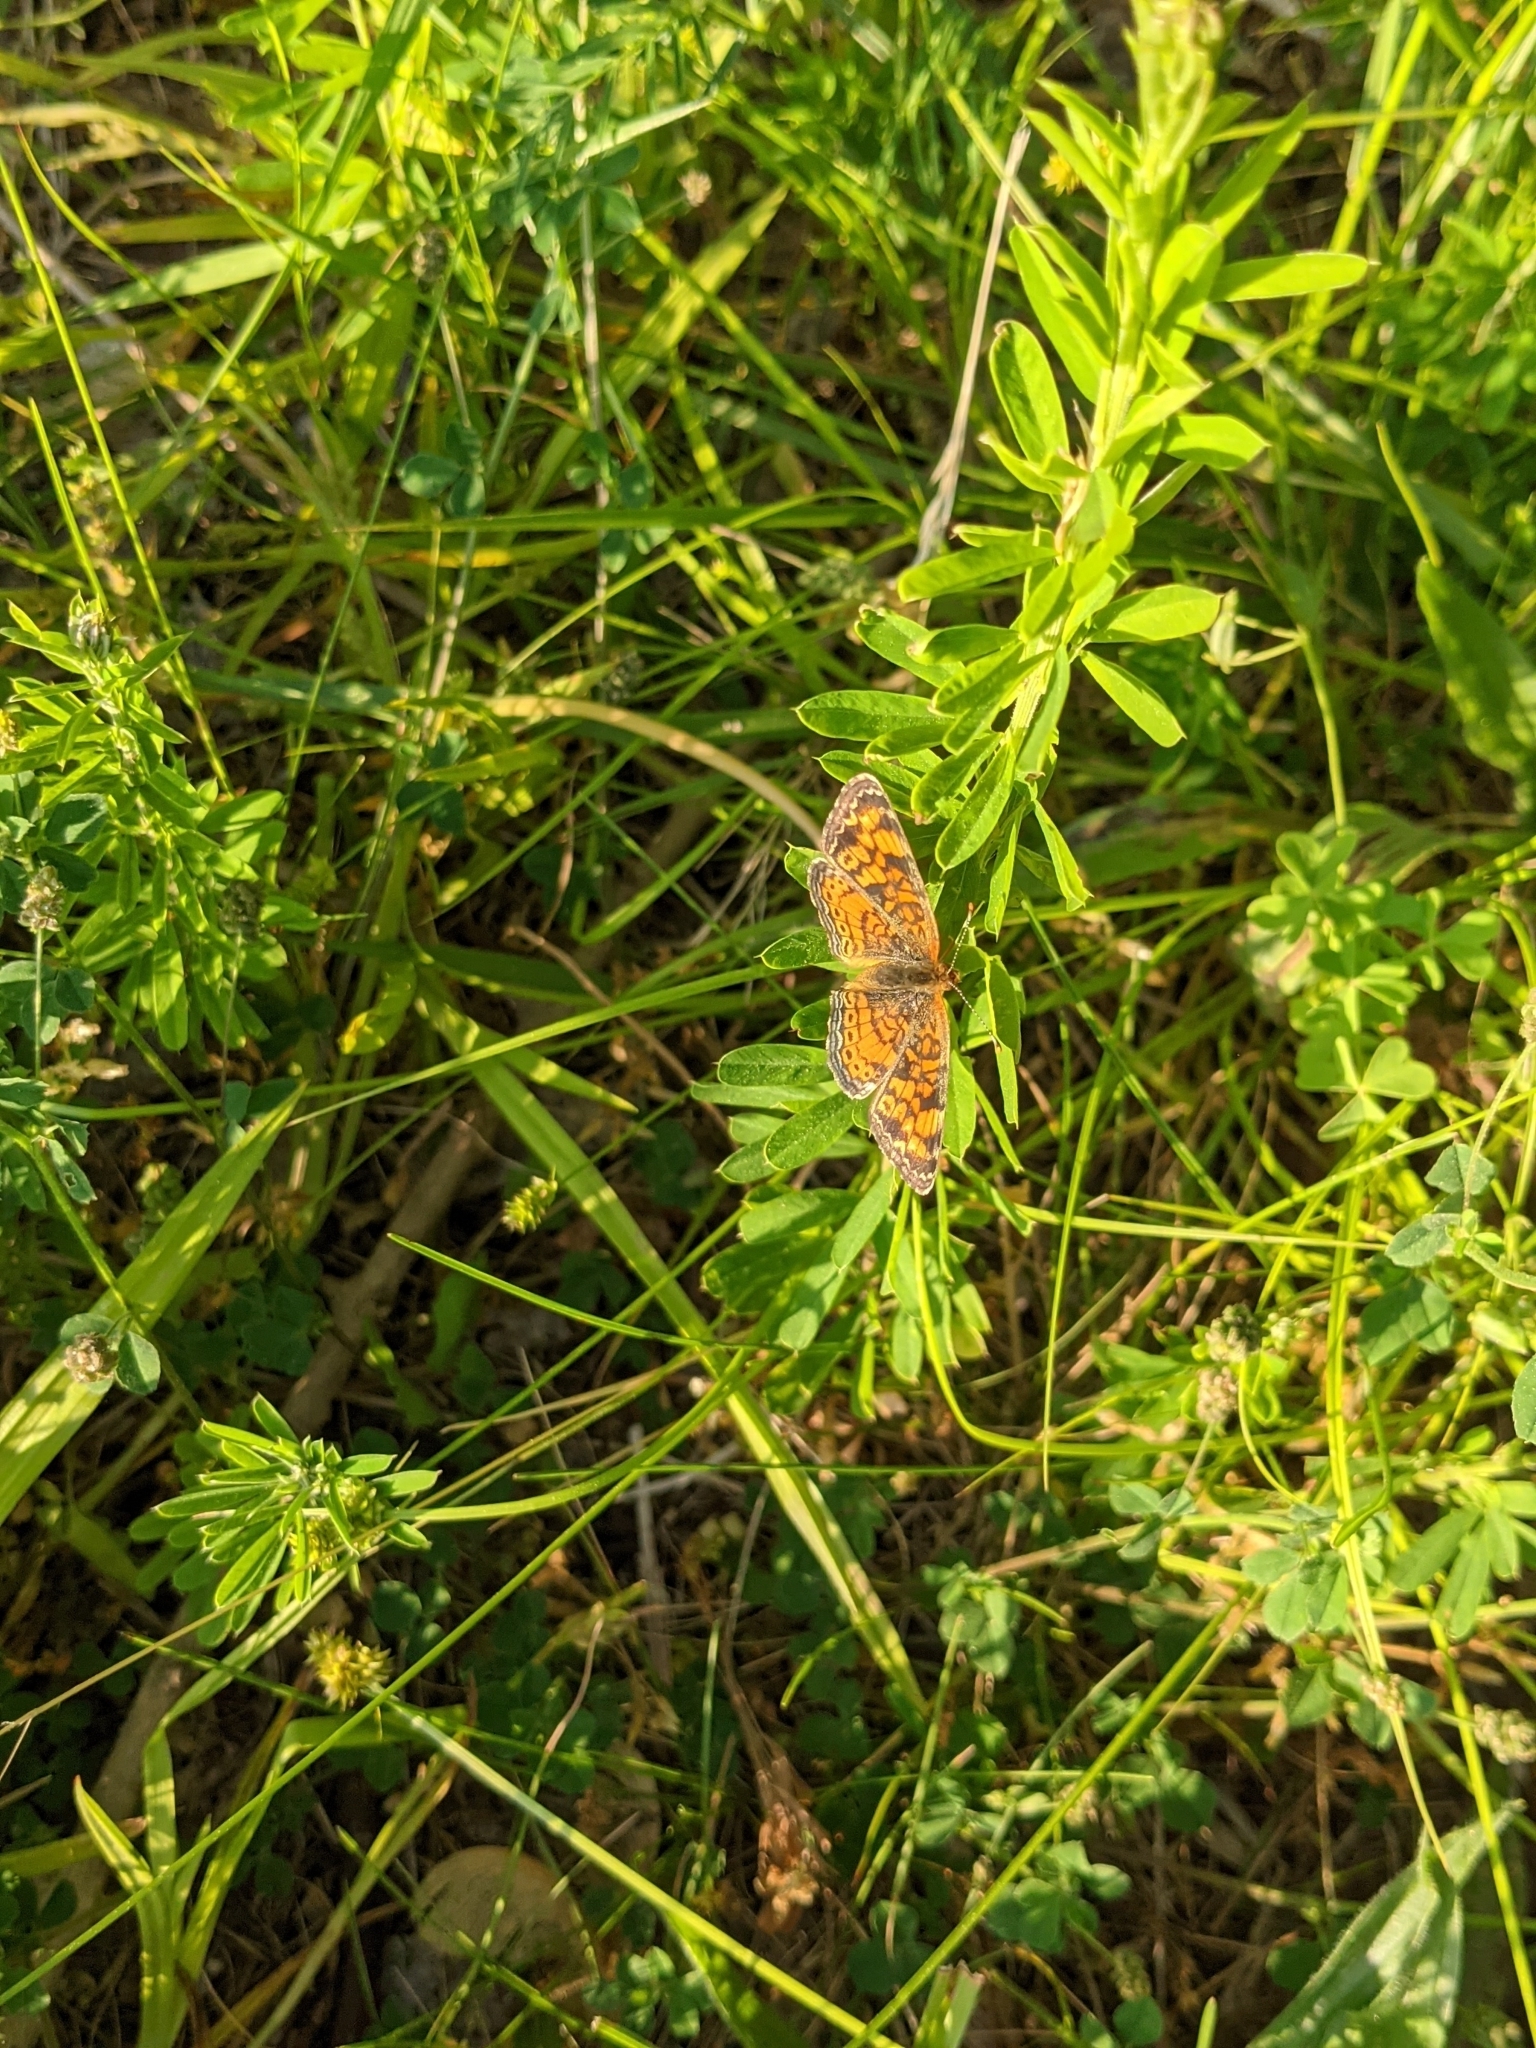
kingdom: Animalia
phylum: Arthropoda
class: Insecta
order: Lepidoptera
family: Nymphalidae
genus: Phyciodes
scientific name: Phyciodes tharos
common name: Pearl crescent
